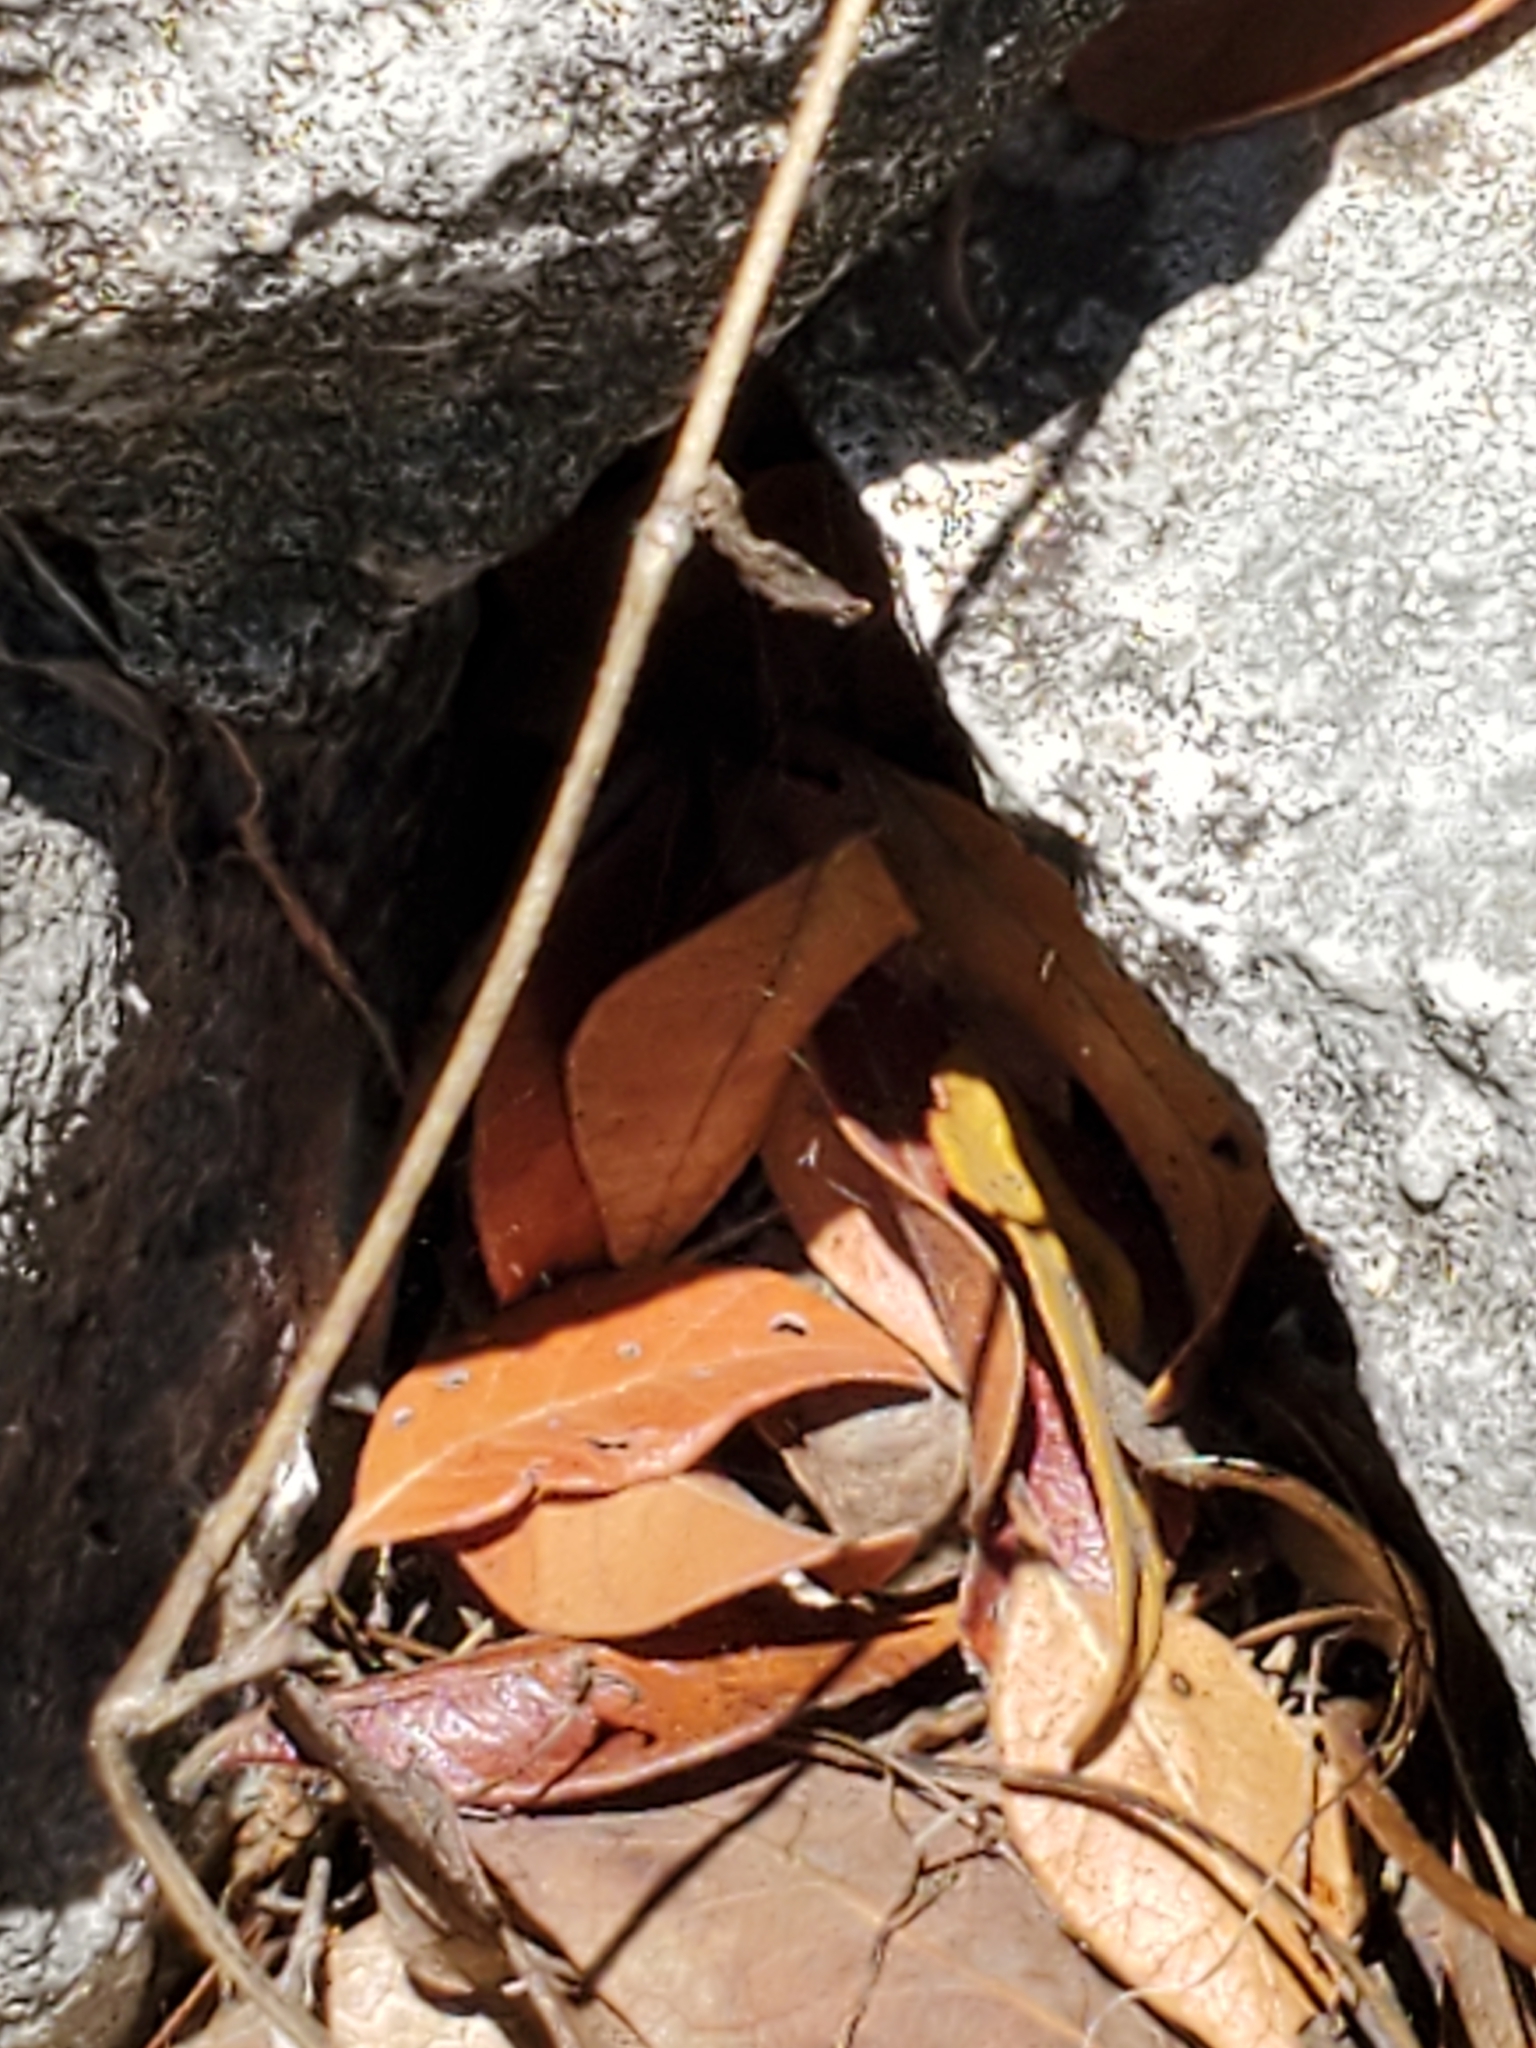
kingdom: Plantae
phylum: Tracheophyta
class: Magnoliopsida
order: Ranunculales
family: Ranunculaceae
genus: Anemone
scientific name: Anemone edwardsiana
